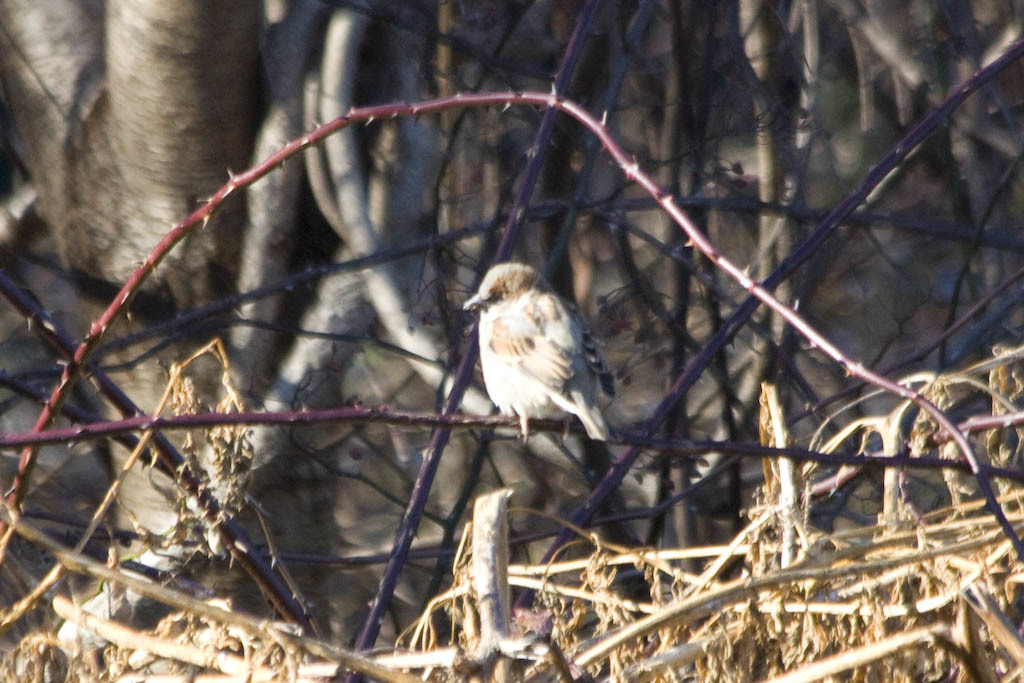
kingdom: Animalia
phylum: Chordata
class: Aves
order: Passeriformes
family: Passeridae
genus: Passer
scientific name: Passer domesticus
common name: House sparrow
